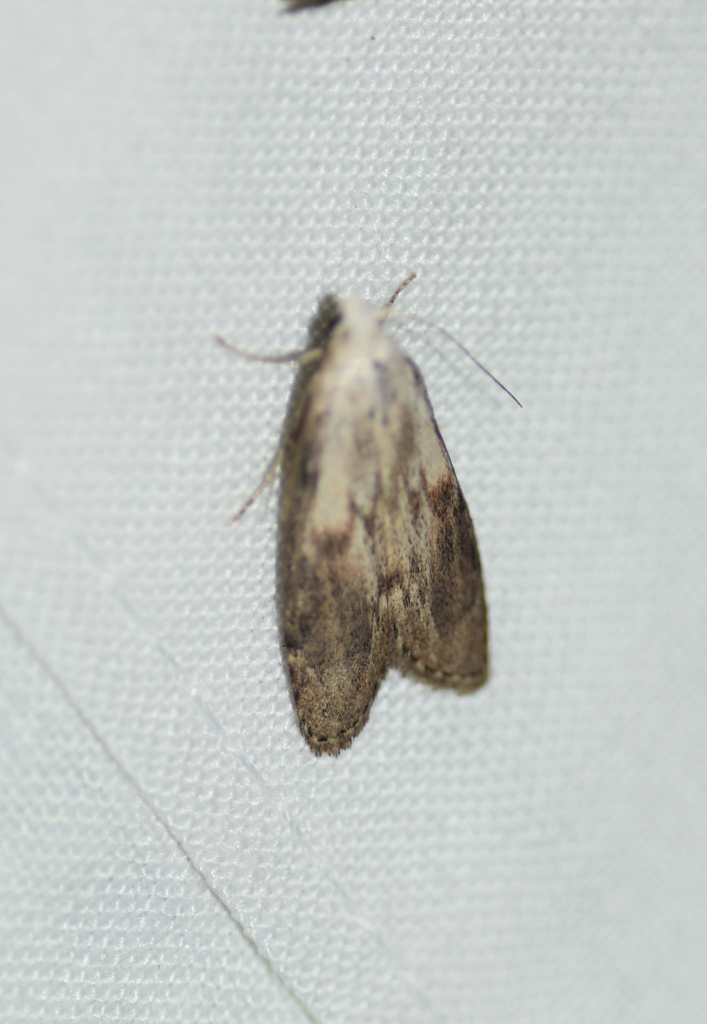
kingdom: Animalia
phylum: Arthropoda
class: Insecta
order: Lepidoptera
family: Pyralidae
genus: Aphomia
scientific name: Aphomia sociella
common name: Bee moth
